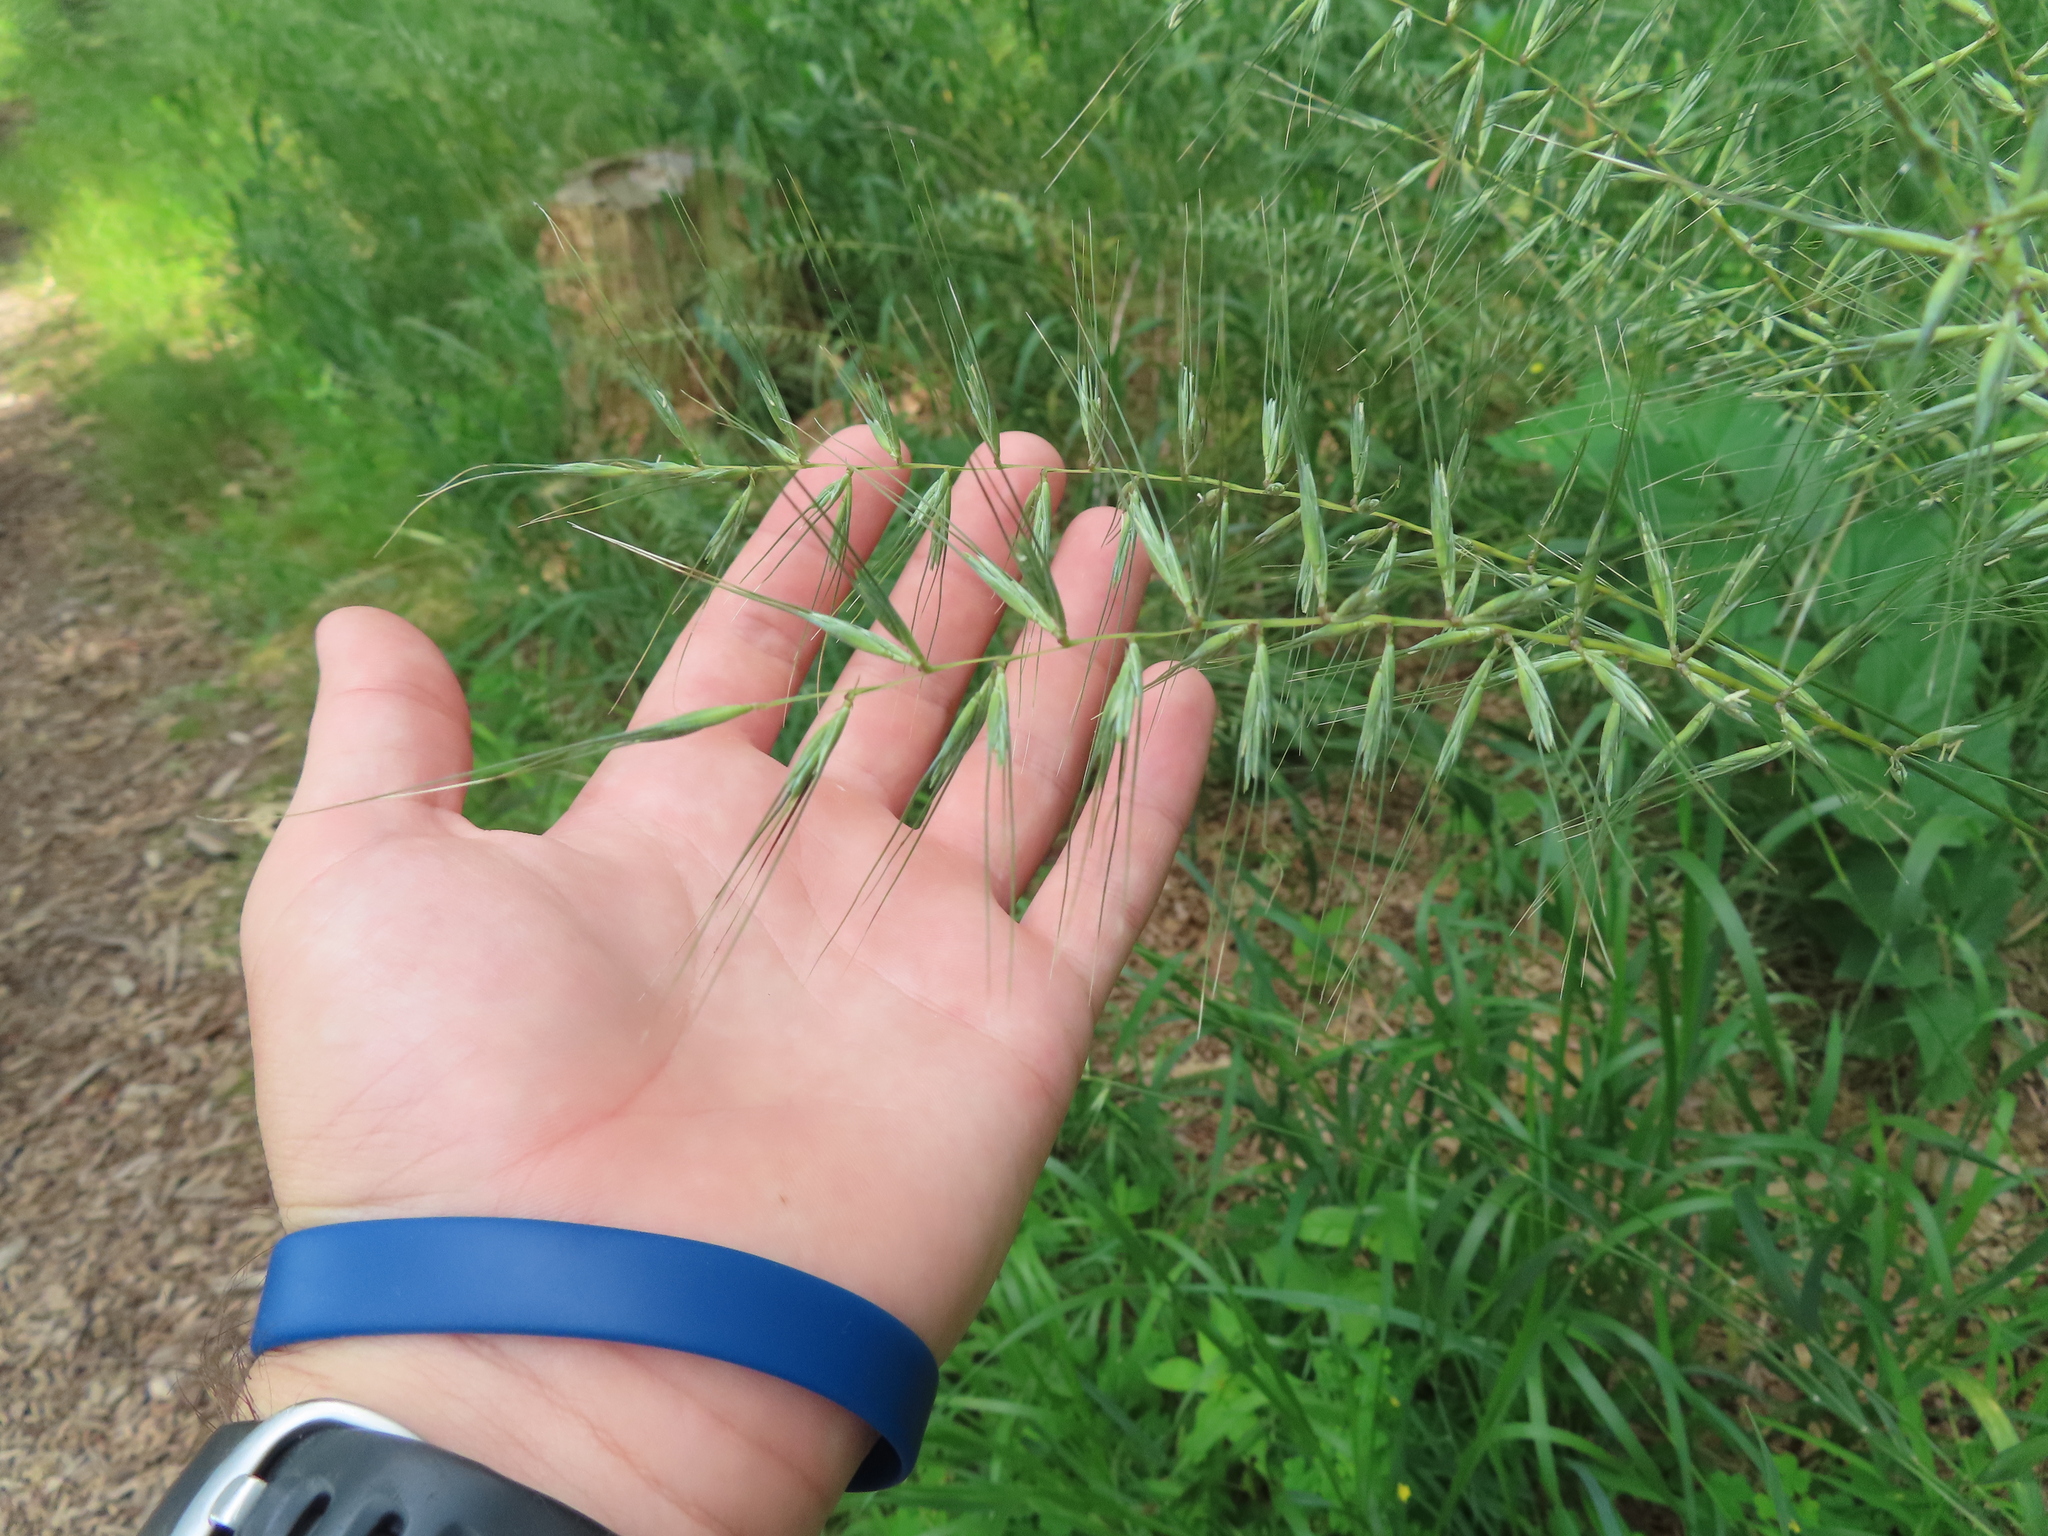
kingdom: Plantae
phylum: Tracheophyta
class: Liliopsida
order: Poales
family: Poaceae
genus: Elymus
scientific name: Elymus hystrix
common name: Bottlebrush grass
